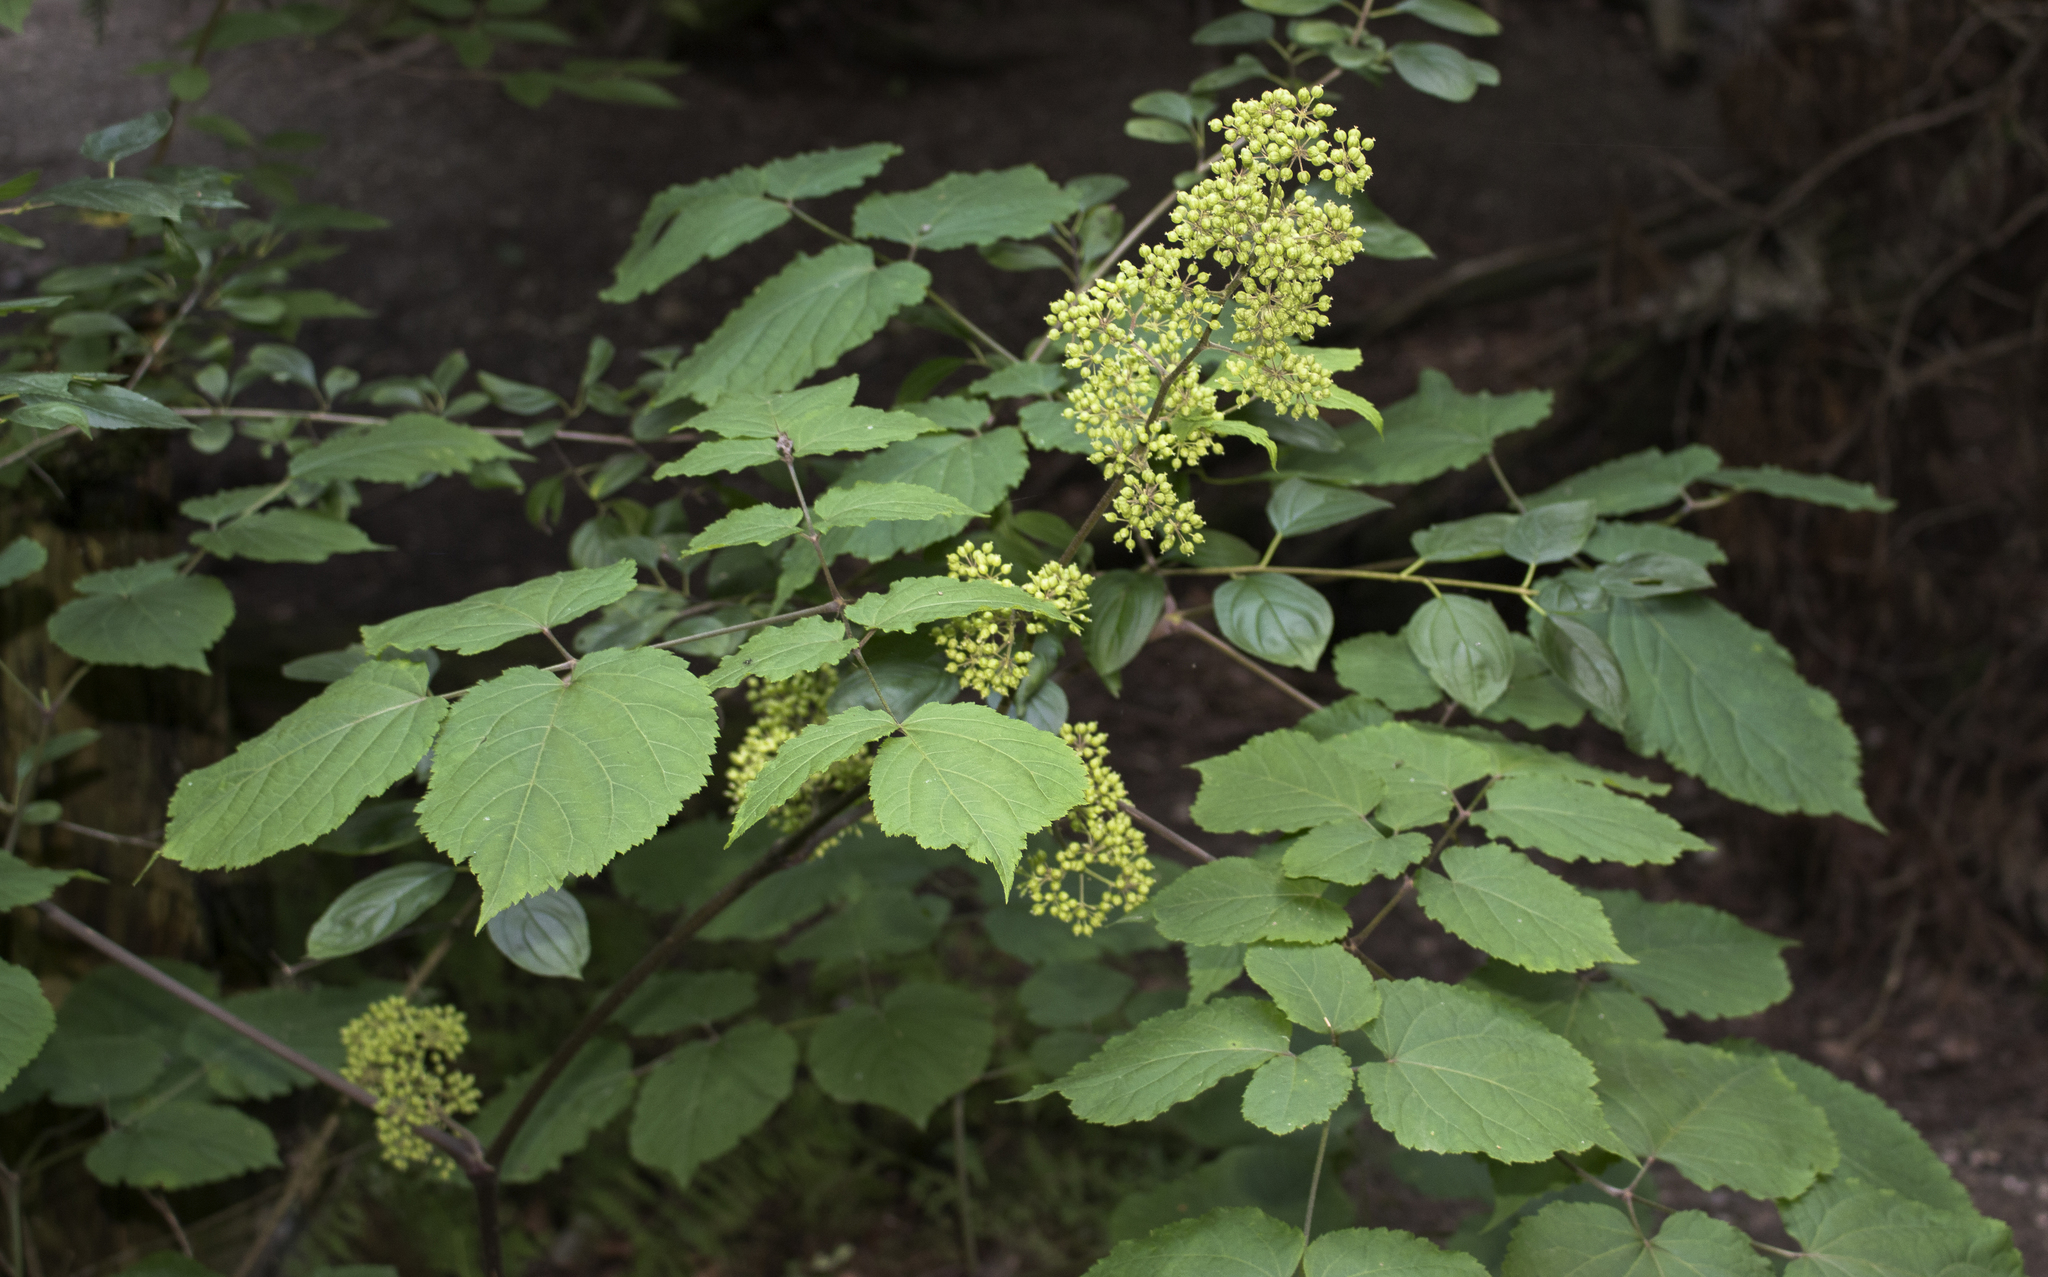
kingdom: Plantae
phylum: Tracheophyta
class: Magnoliopsida
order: Apiales
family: Araliaceae
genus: Aralia
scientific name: Aralia racemosa
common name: American-spikenard
